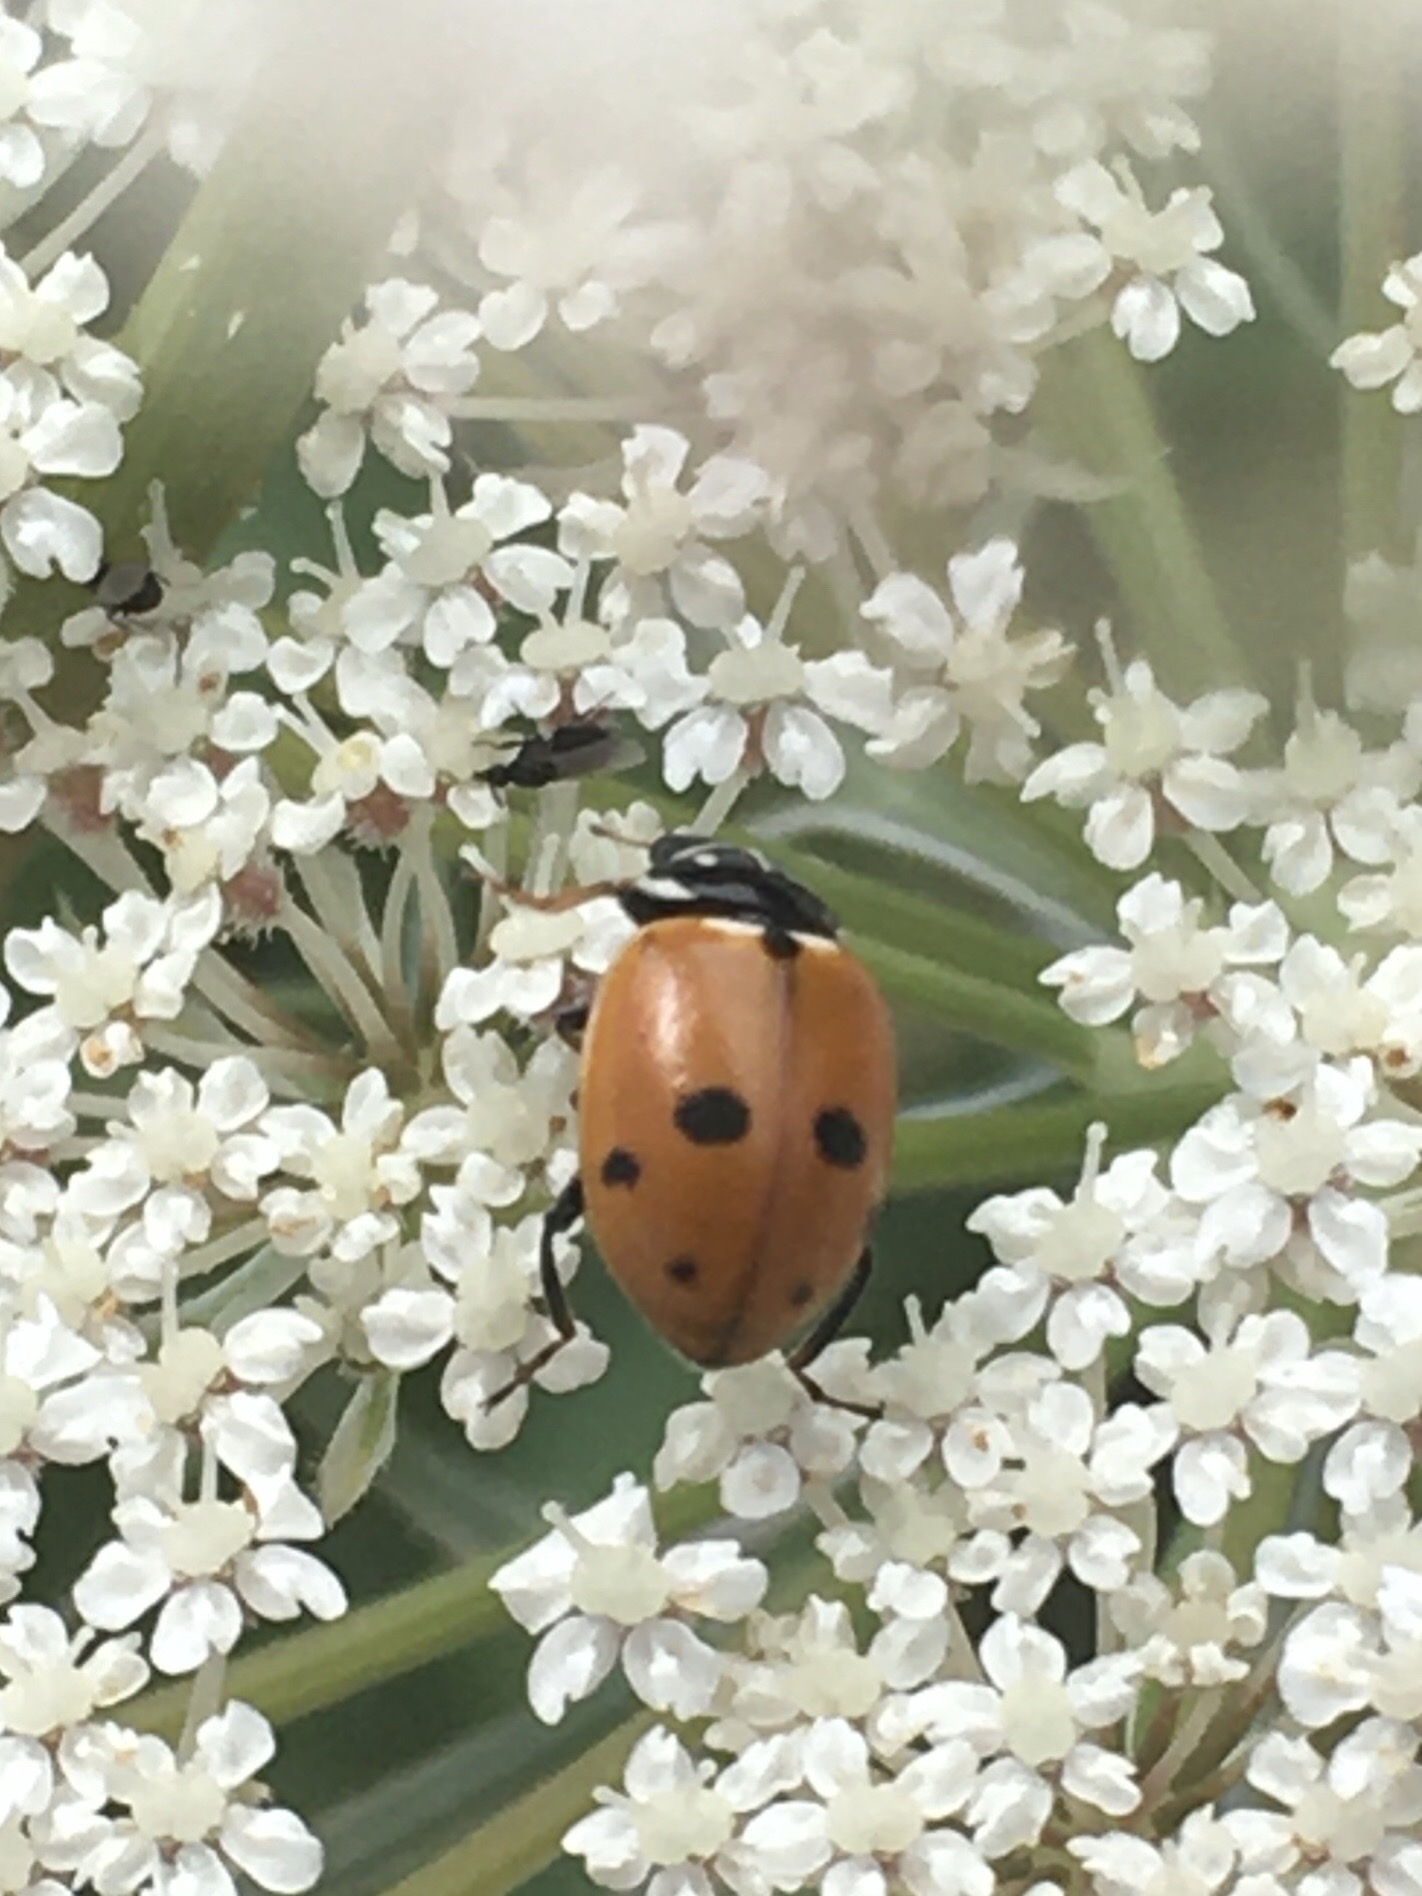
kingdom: Animalia
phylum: Arthropoda
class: Insecta
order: Coleoptera
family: Coccinellidae
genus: Hippodamia
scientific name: Hippodamia variegata
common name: Ladybird beetle
